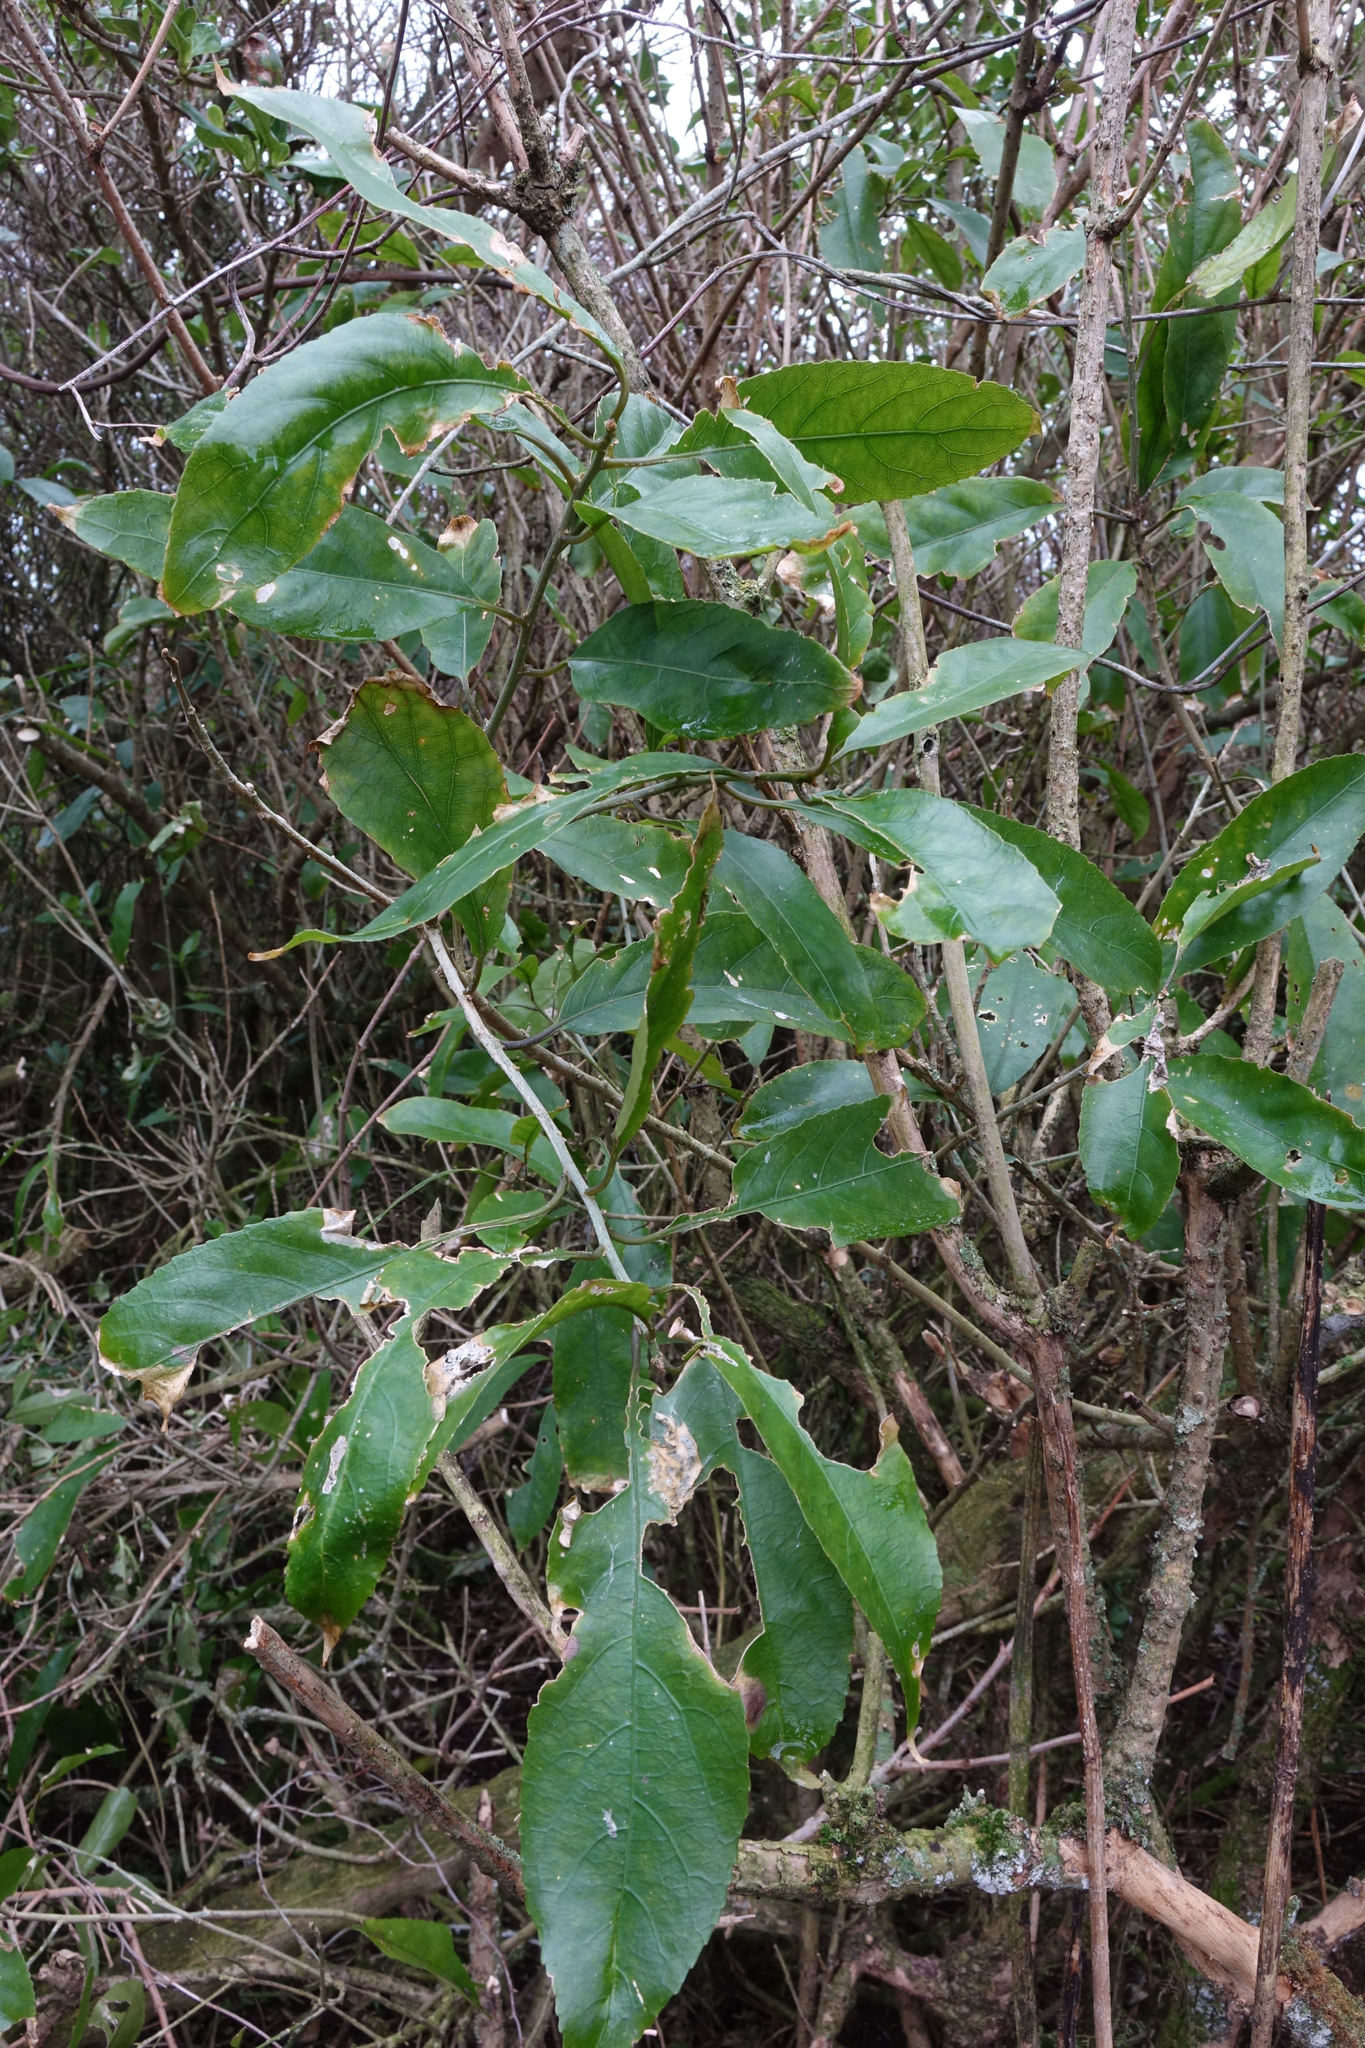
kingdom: Plantae
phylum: Tracheophyta
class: Magnoliopsida
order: Malpighiales
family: Violaceae
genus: Melicytus
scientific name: Melicytus ramiflorus
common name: Mahoe
